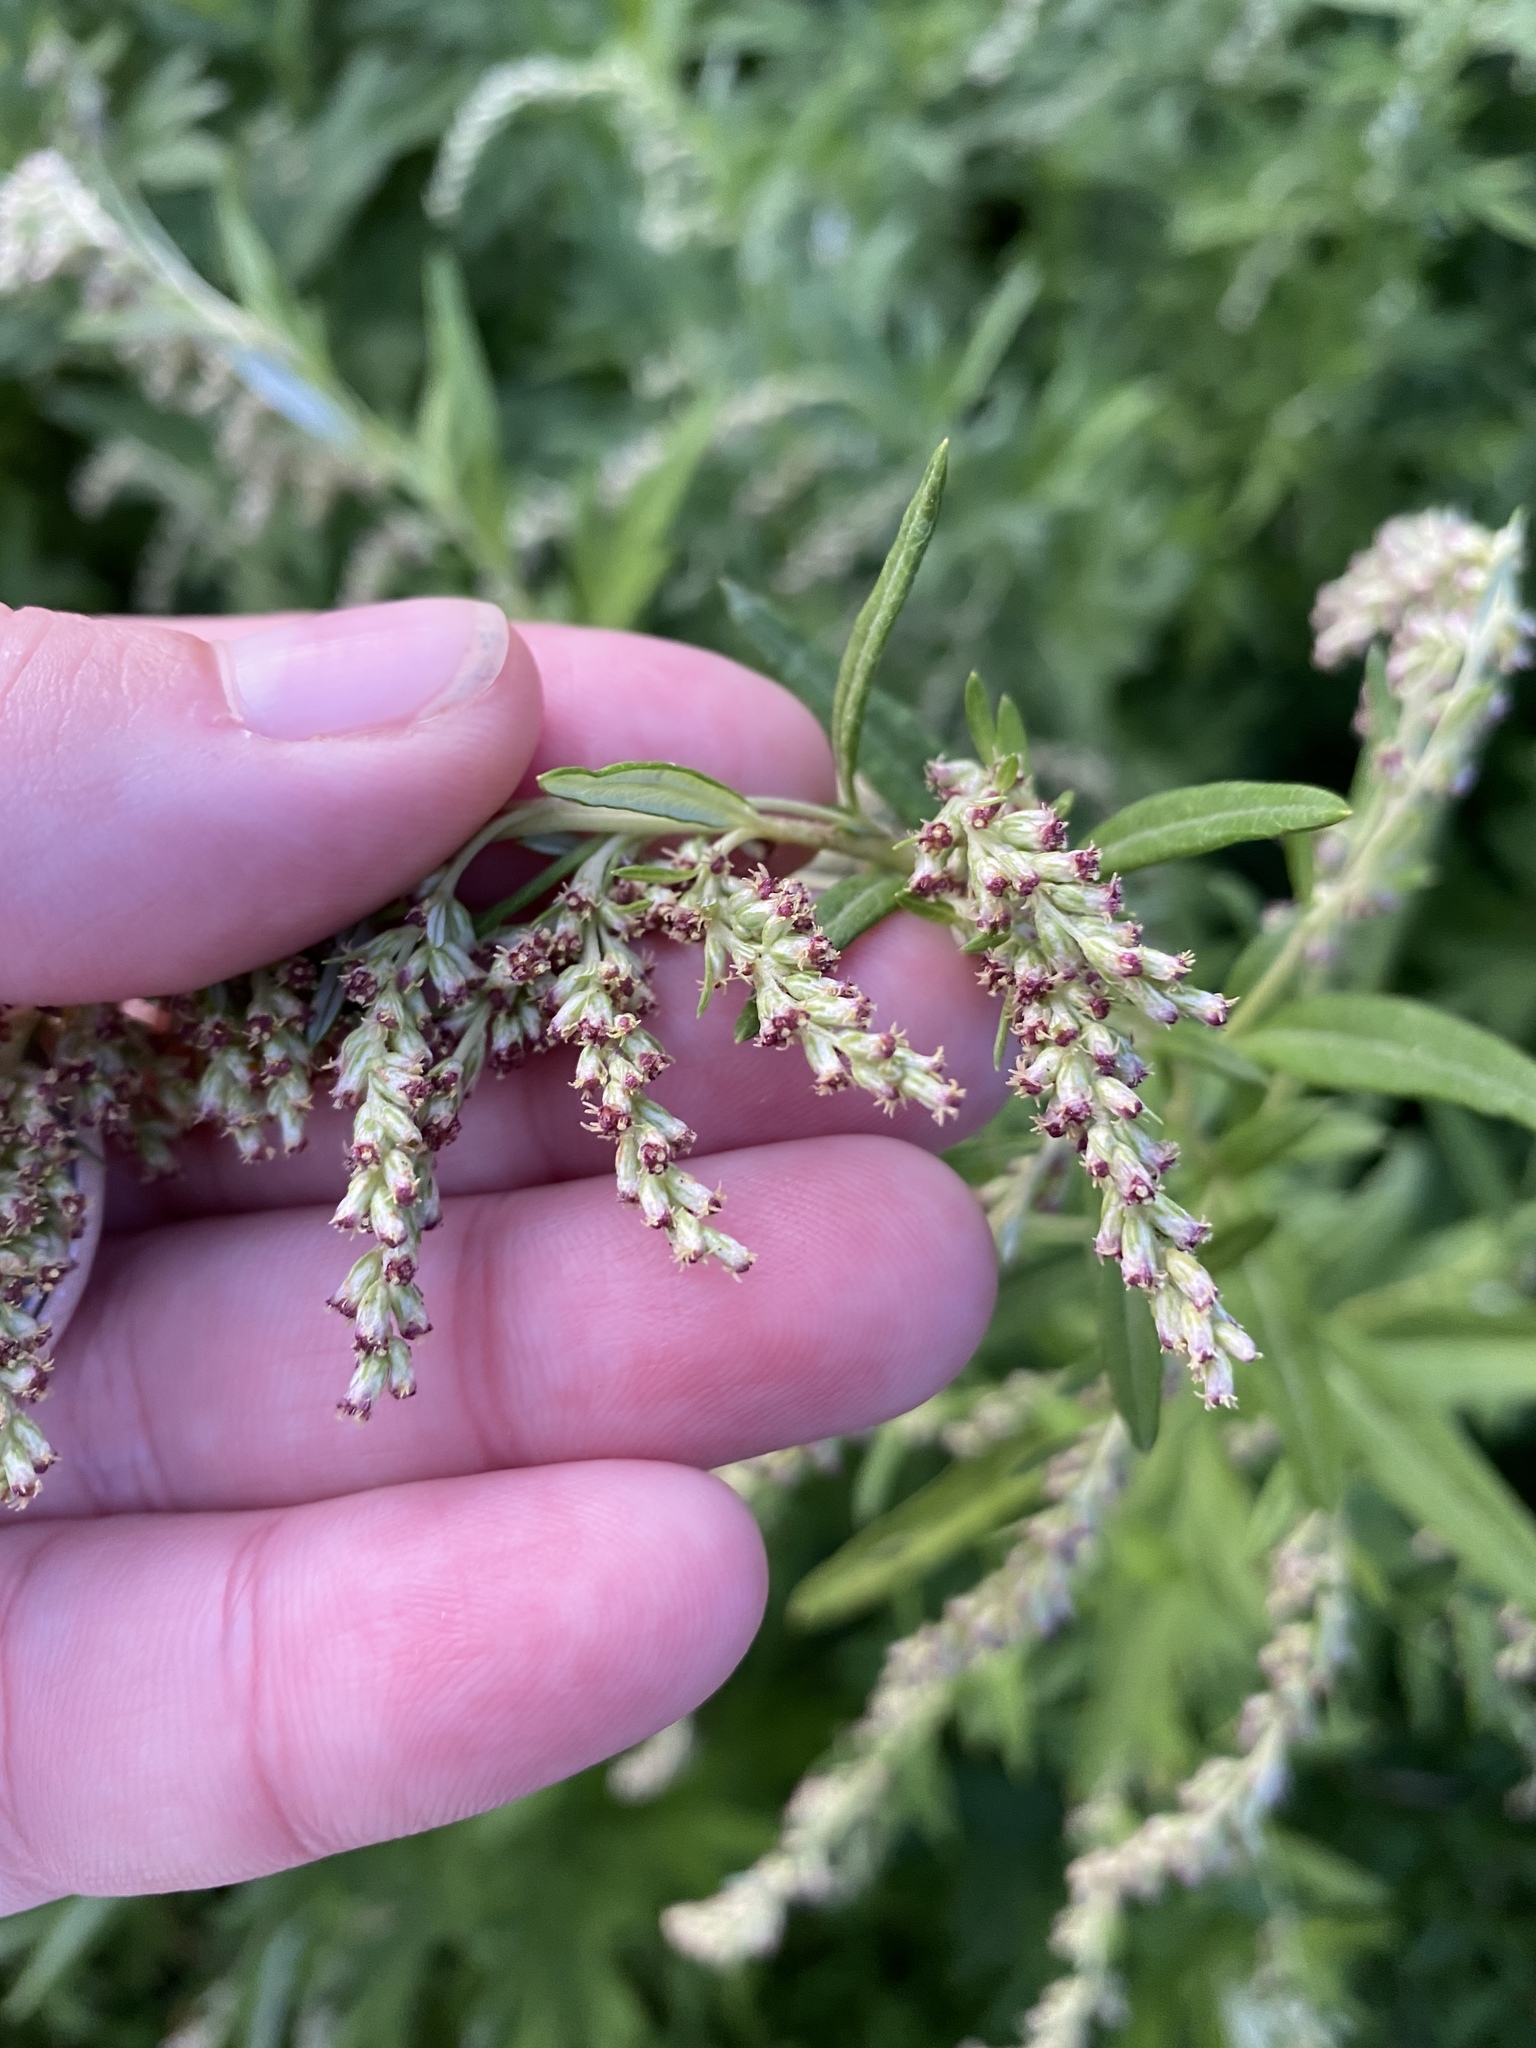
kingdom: Plantae
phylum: Tracheophyta
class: Magnoliopsida
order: Asterales
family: Asteraceae
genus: Artemisia
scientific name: Artemisia vulgaris
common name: Mugwort
